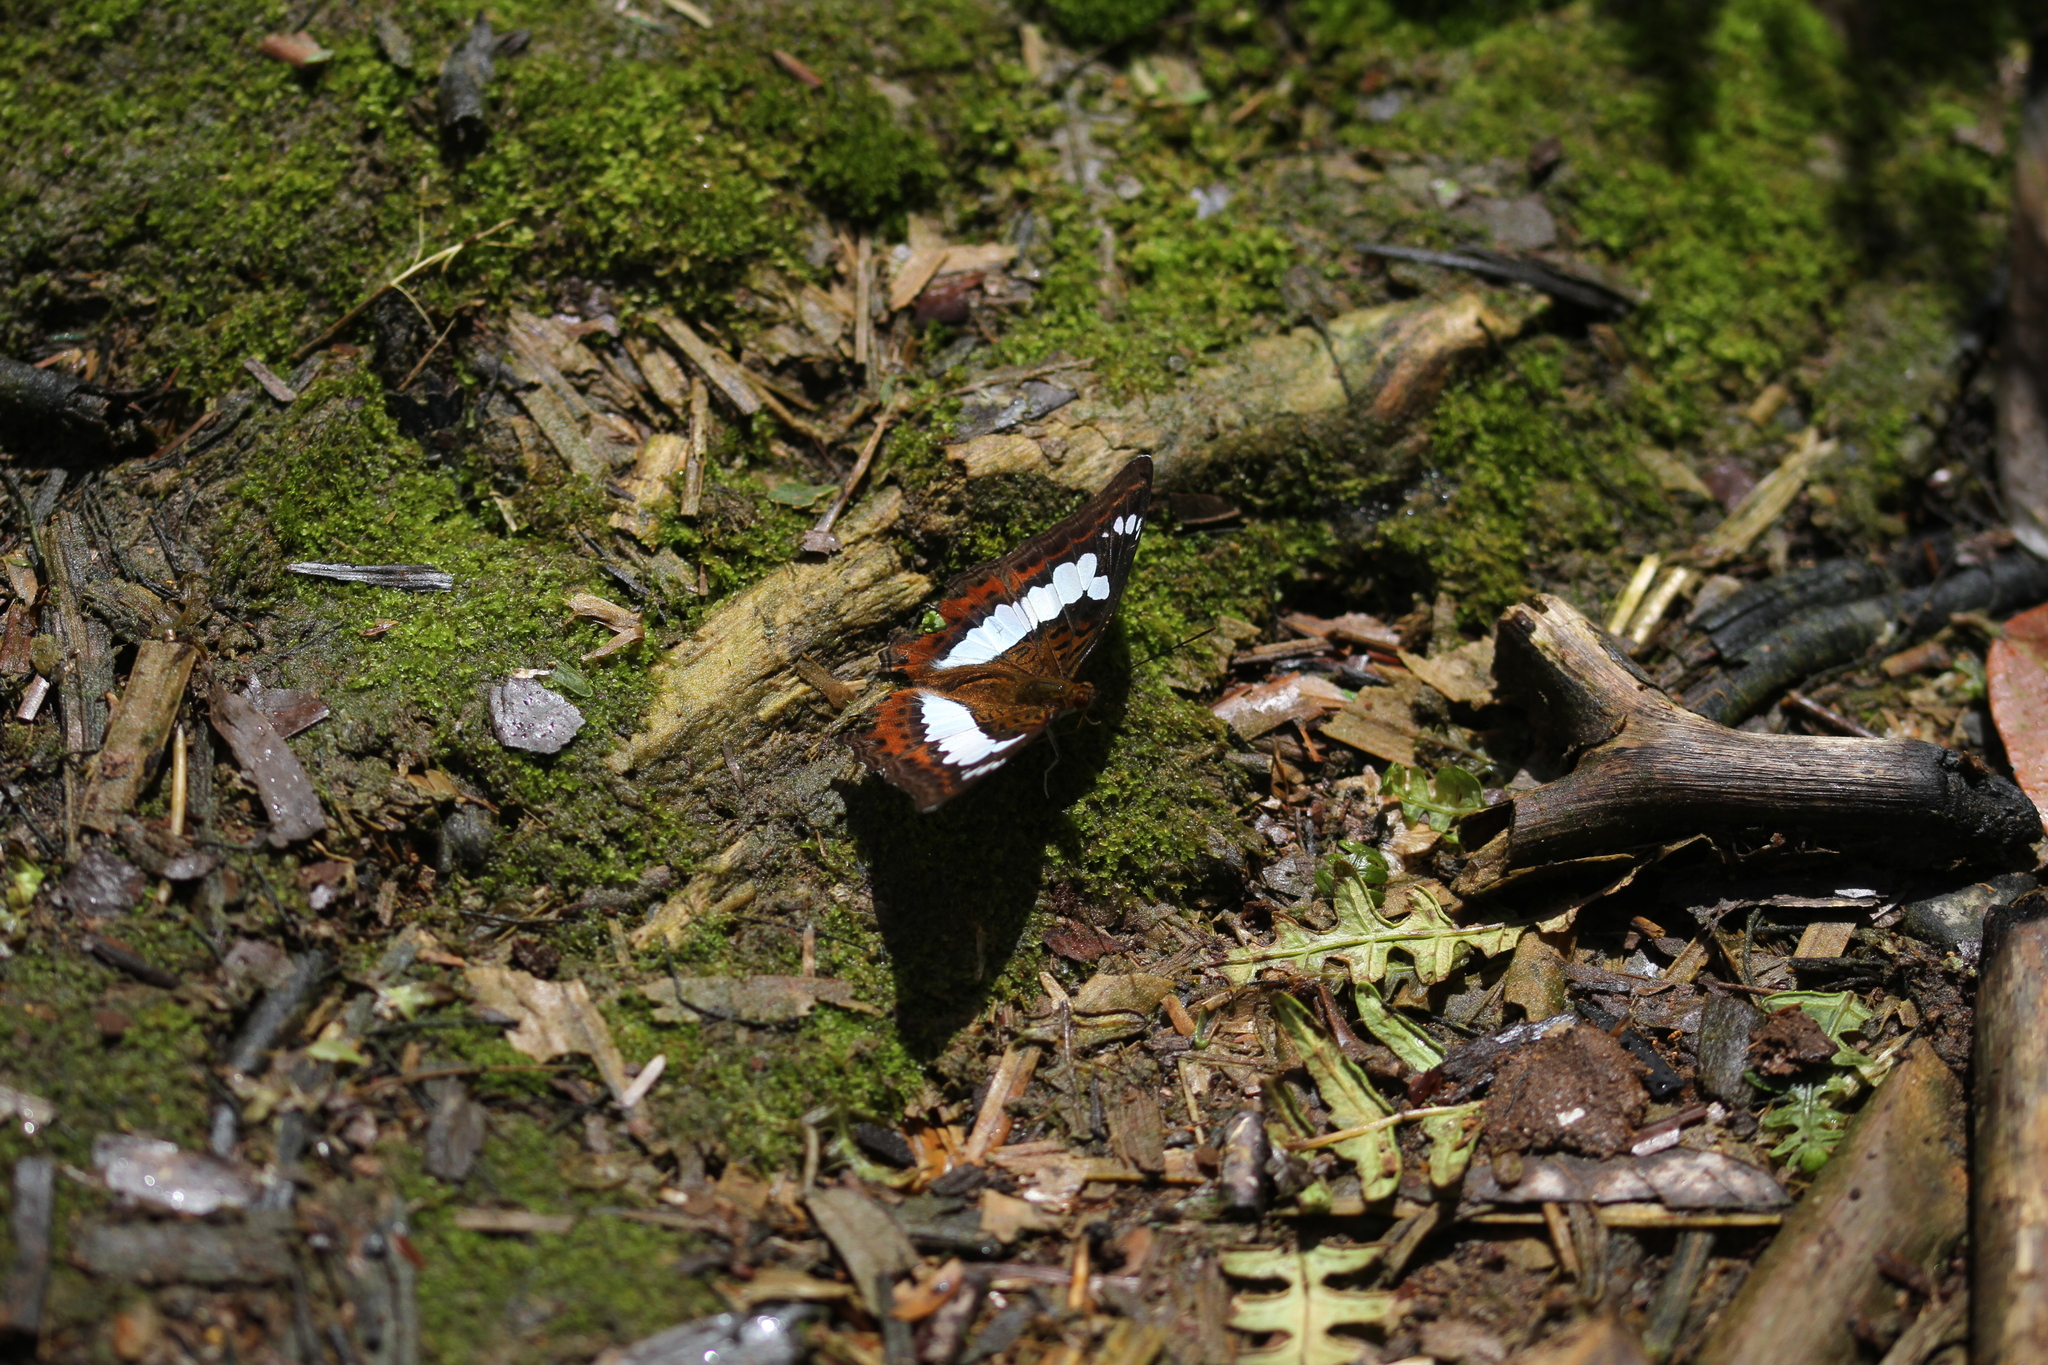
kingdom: Animalia
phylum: Arthropoda
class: Insecta
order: Lepidoptera
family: Nymphalidae
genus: Limenitis
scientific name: Limenitis Moduza procris
